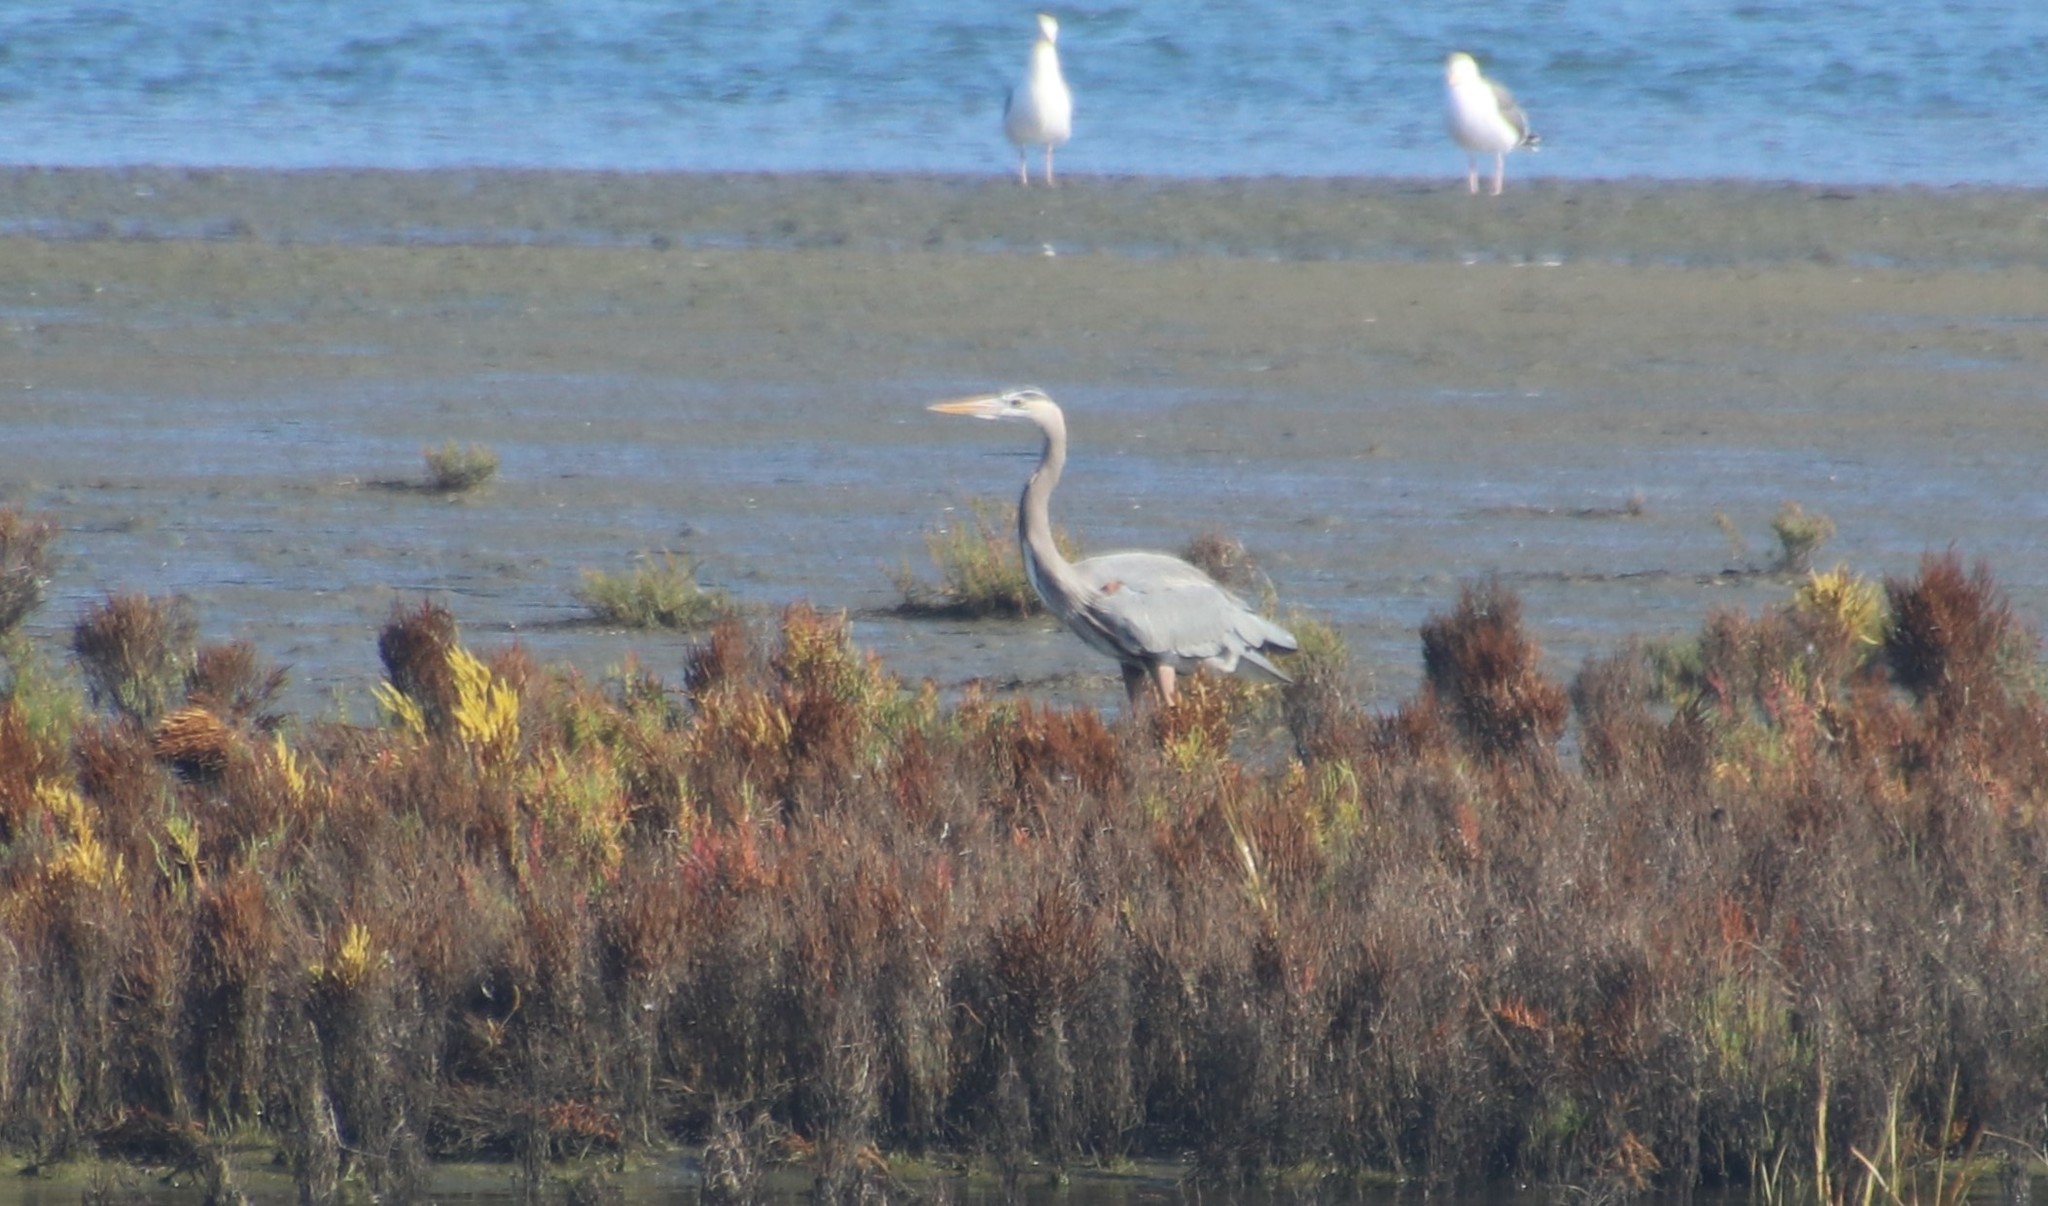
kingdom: Animalia
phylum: Chordata
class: Aves
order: Pelecaniformes
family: Ardeidae
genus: Ardea
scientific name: Ardea herodias
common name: Great blue heron
